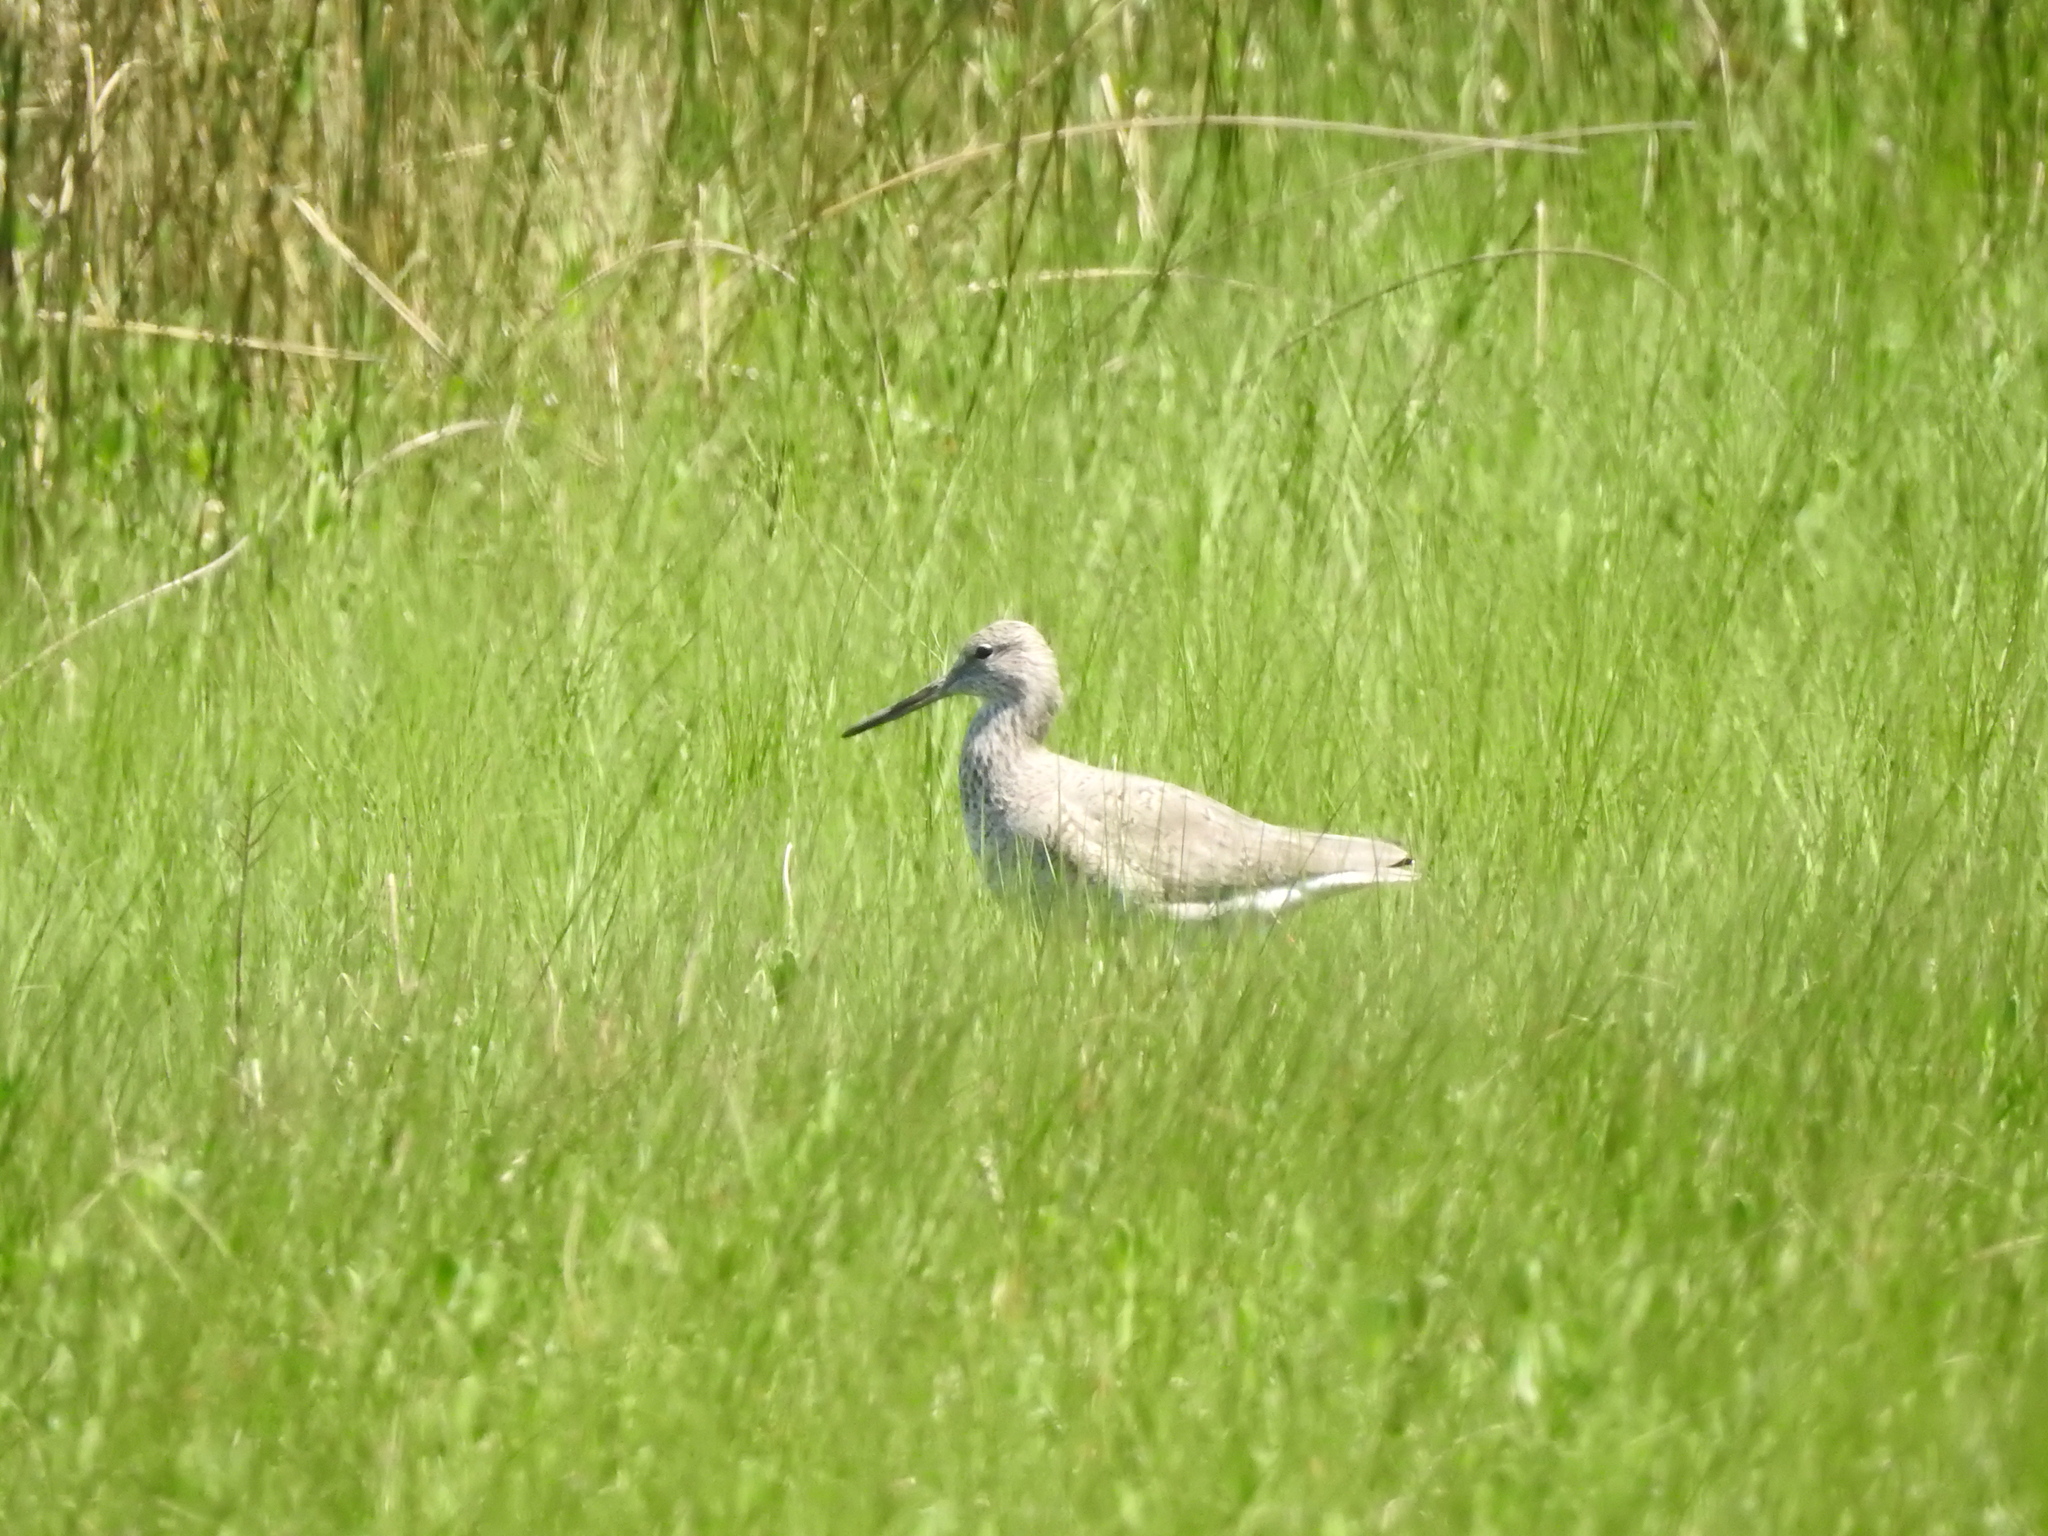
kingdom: Animalia
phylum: Chordata
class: Aves
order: Charadriiformes
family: Scolopacidae
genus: Tringa
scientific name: Tringa semipalmata
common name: Willet
